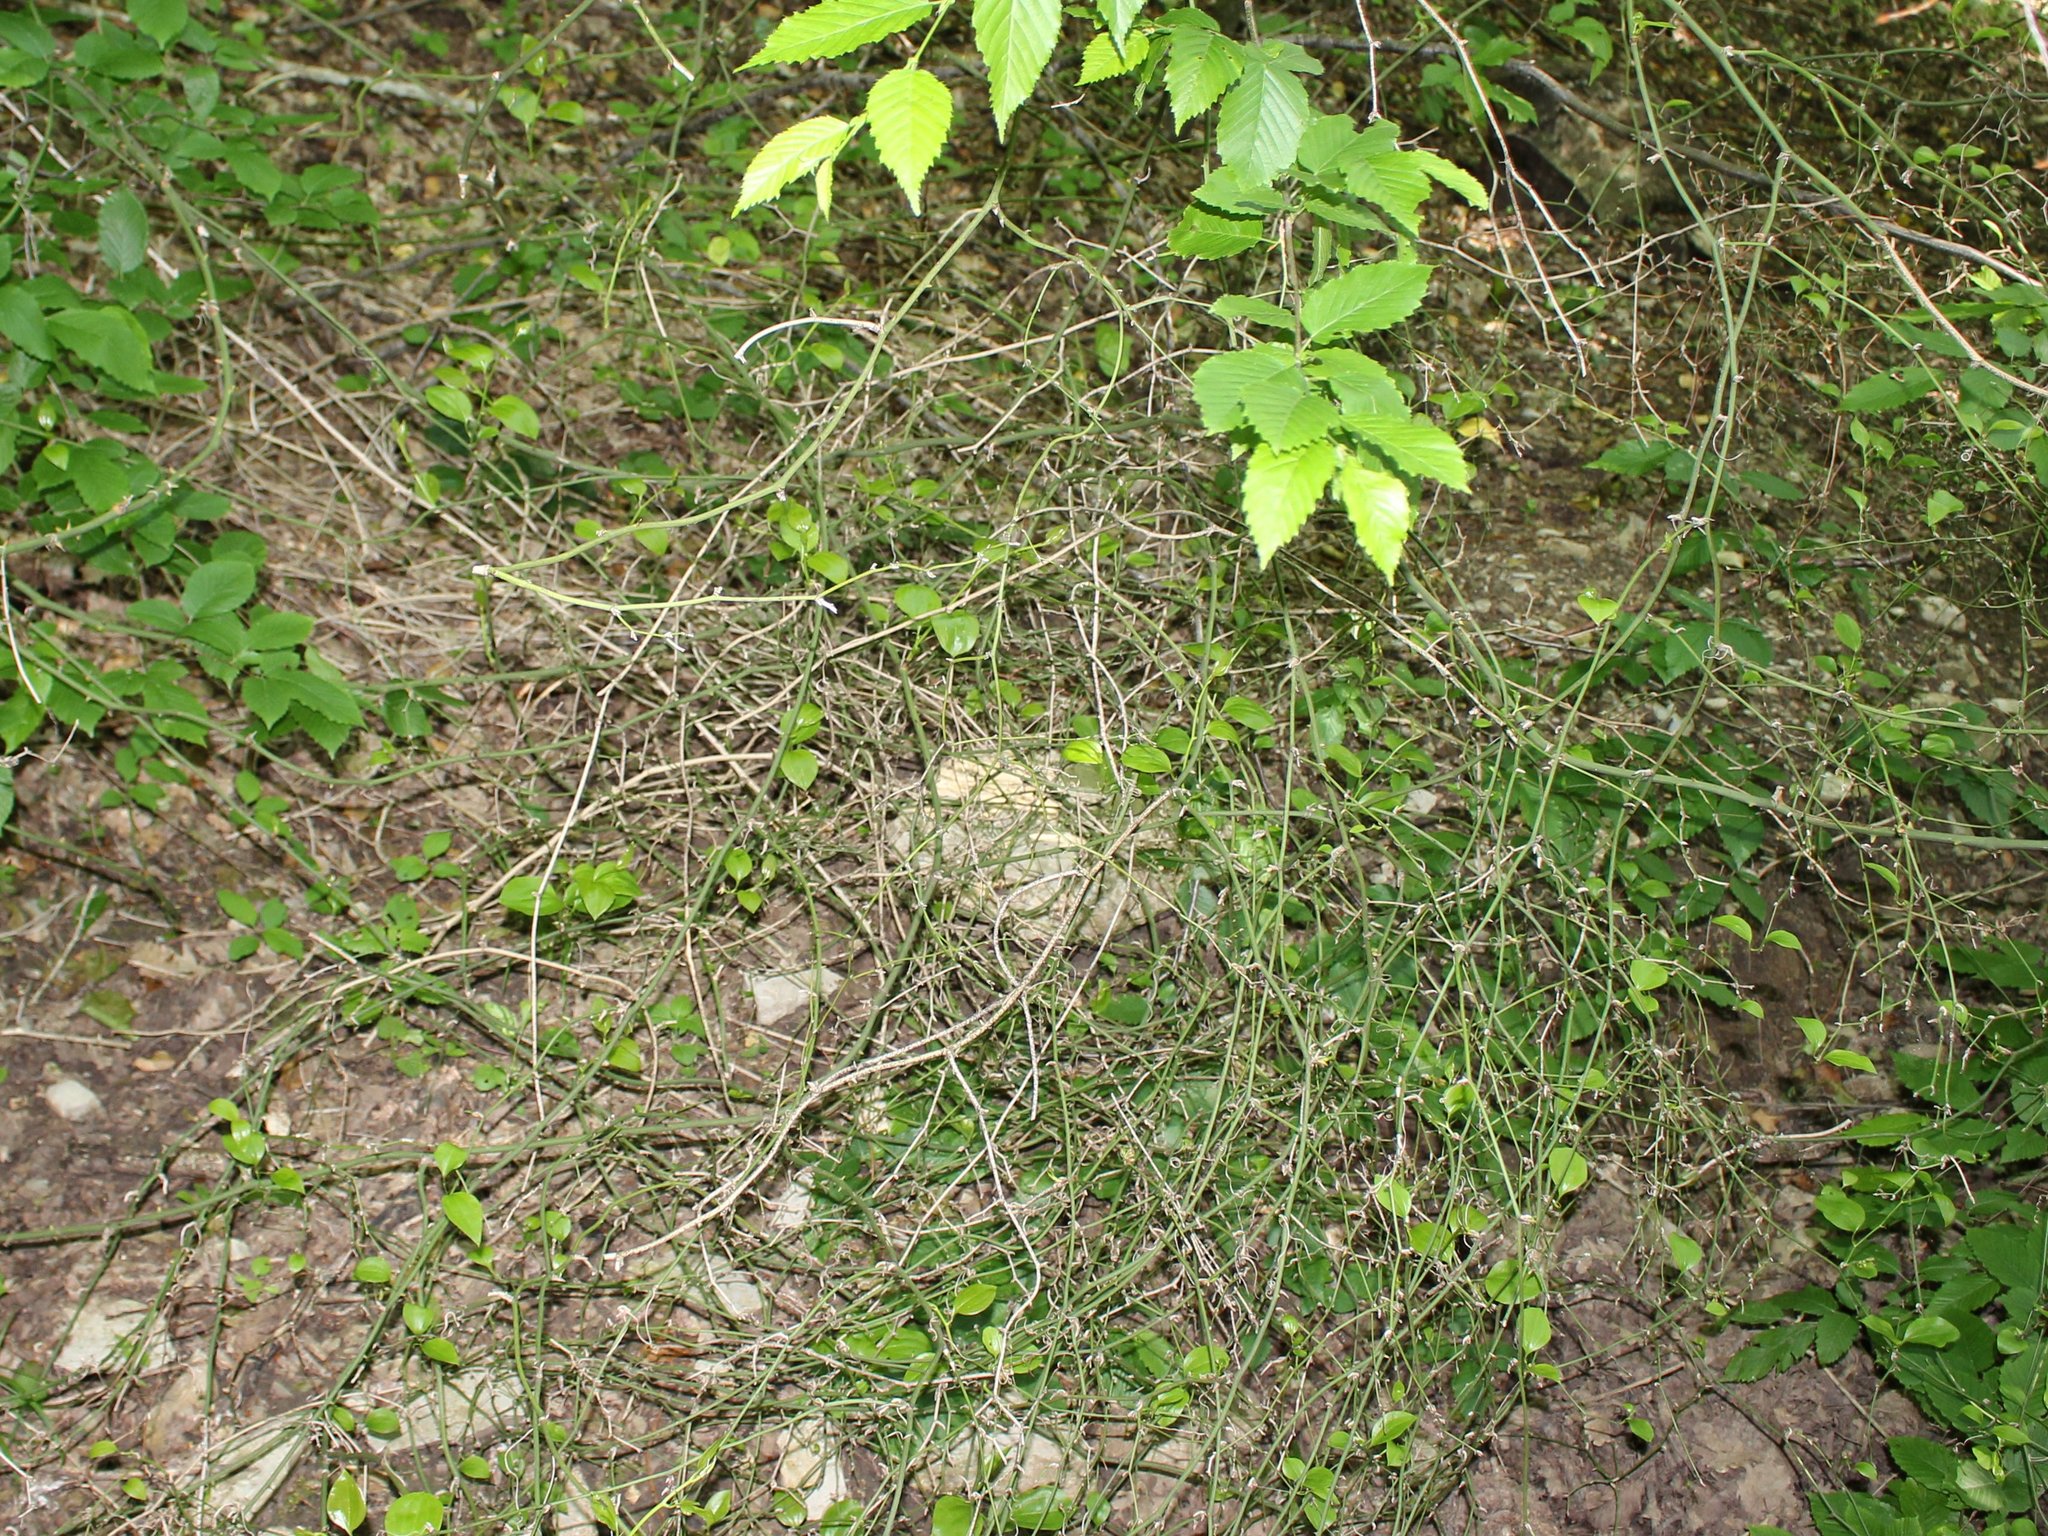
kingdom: Plantae
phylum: Tracheophyta
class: Liliopsida
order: Liliales
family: Smilacaceae
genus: Smilax
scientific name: Smilax excelsa
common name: Larger smilax
